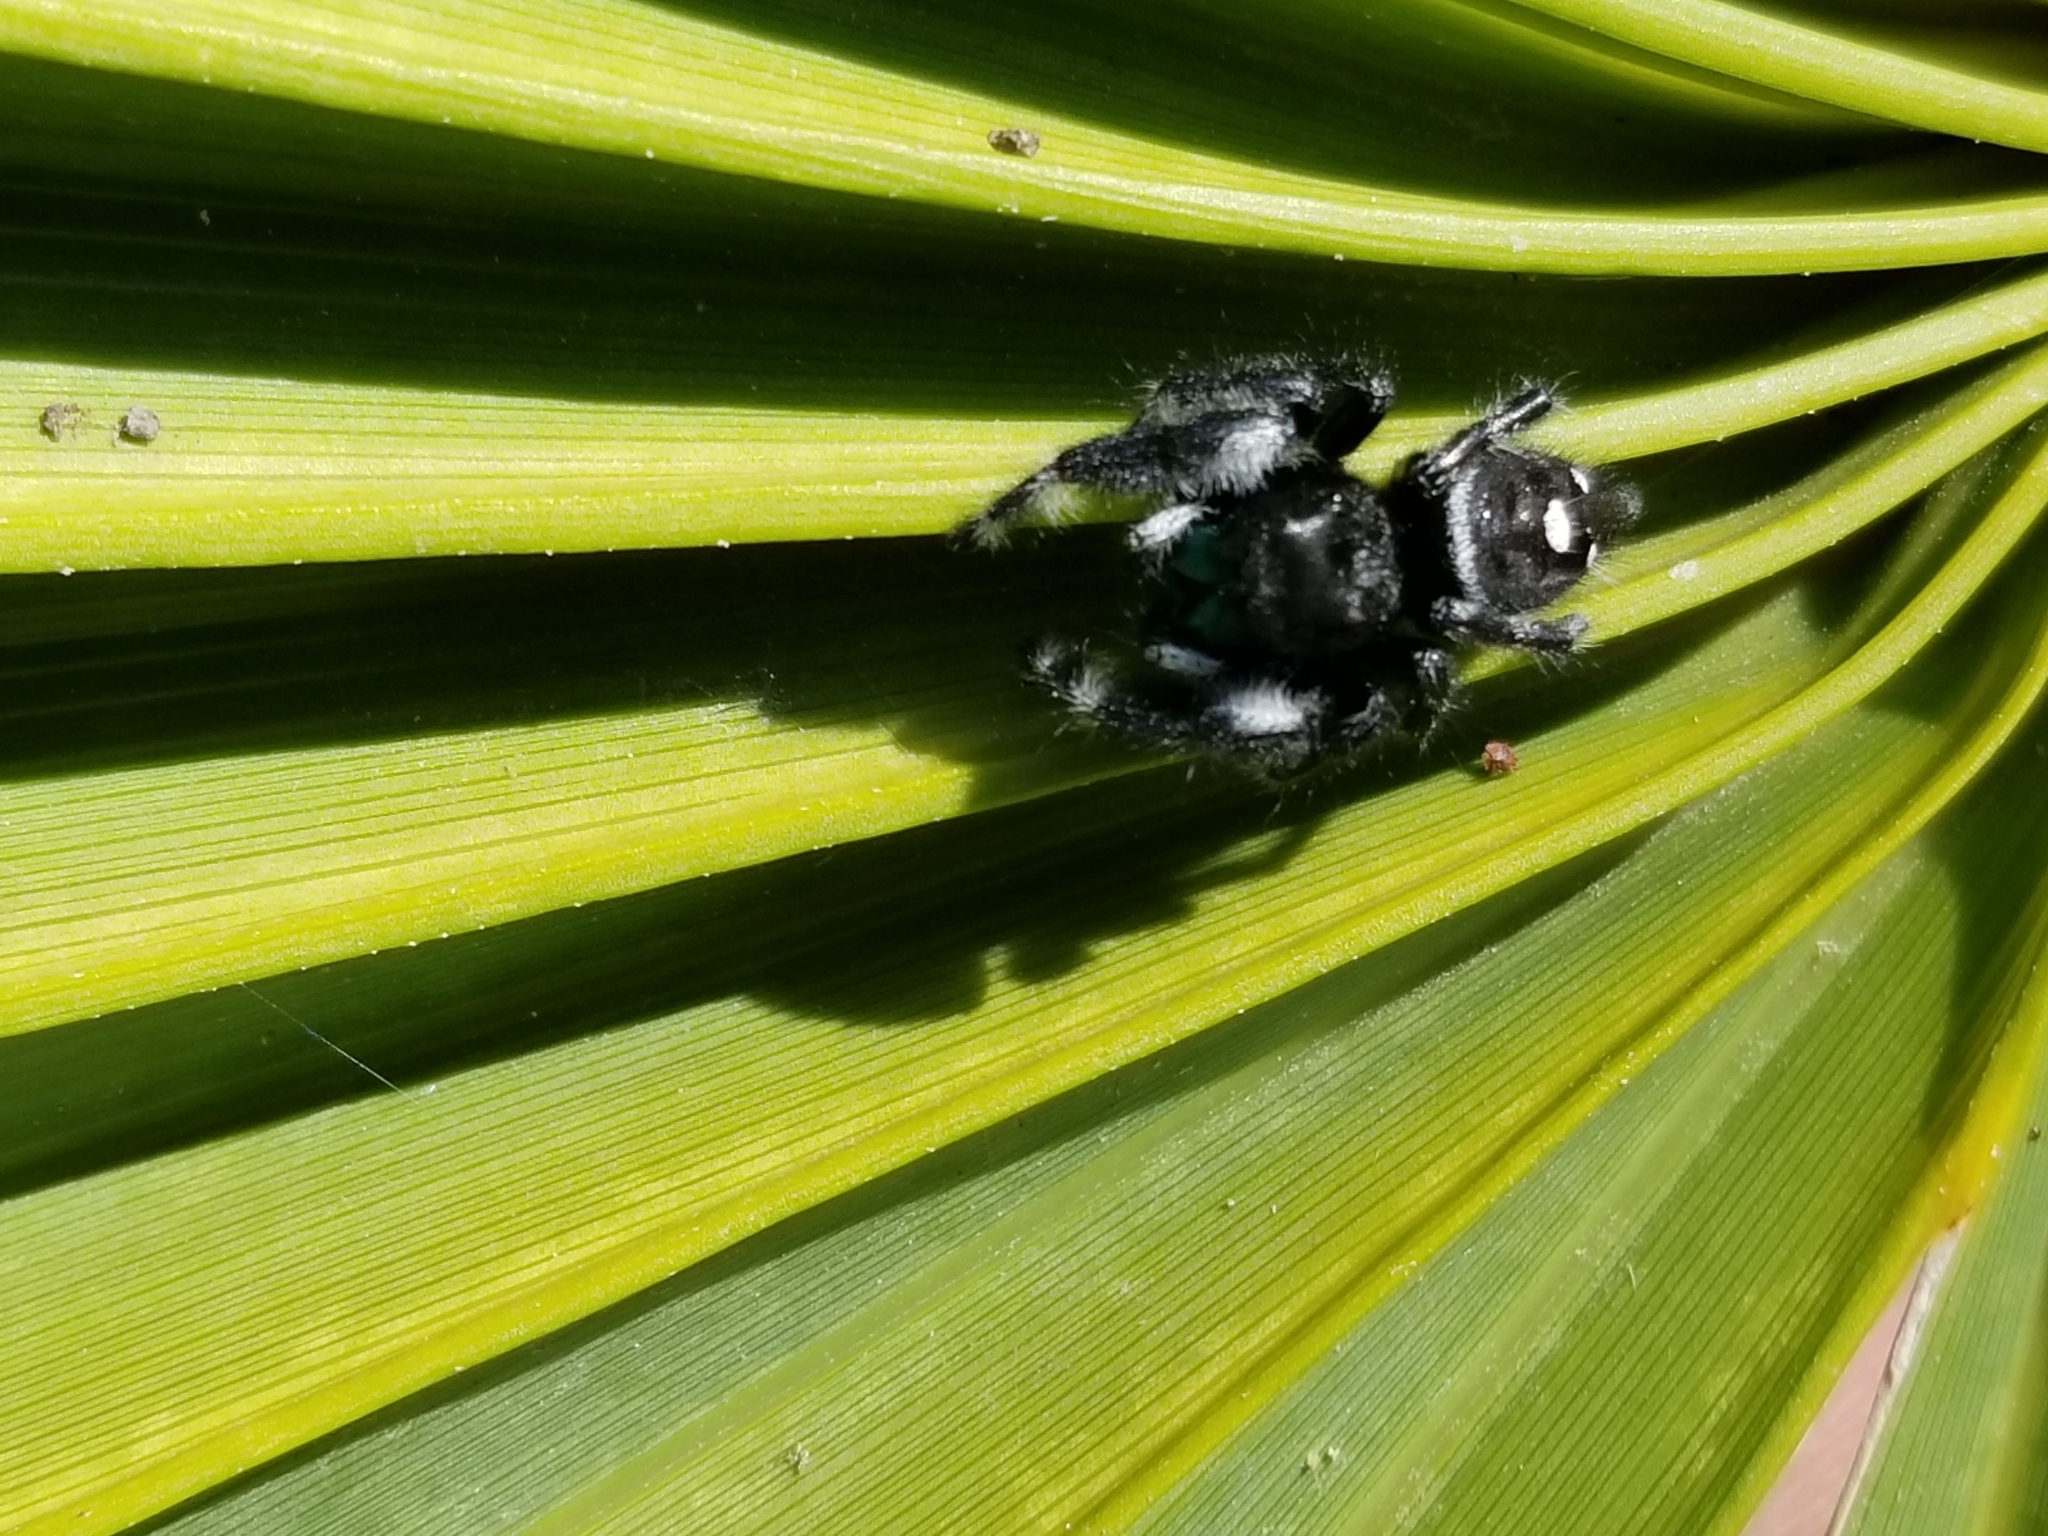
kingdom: Animalia
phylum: Arthropoda
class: Arachnida
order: Araneae
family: Salticidae
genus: Phidippus
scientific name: Phidippus audax
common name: Bold jumper
